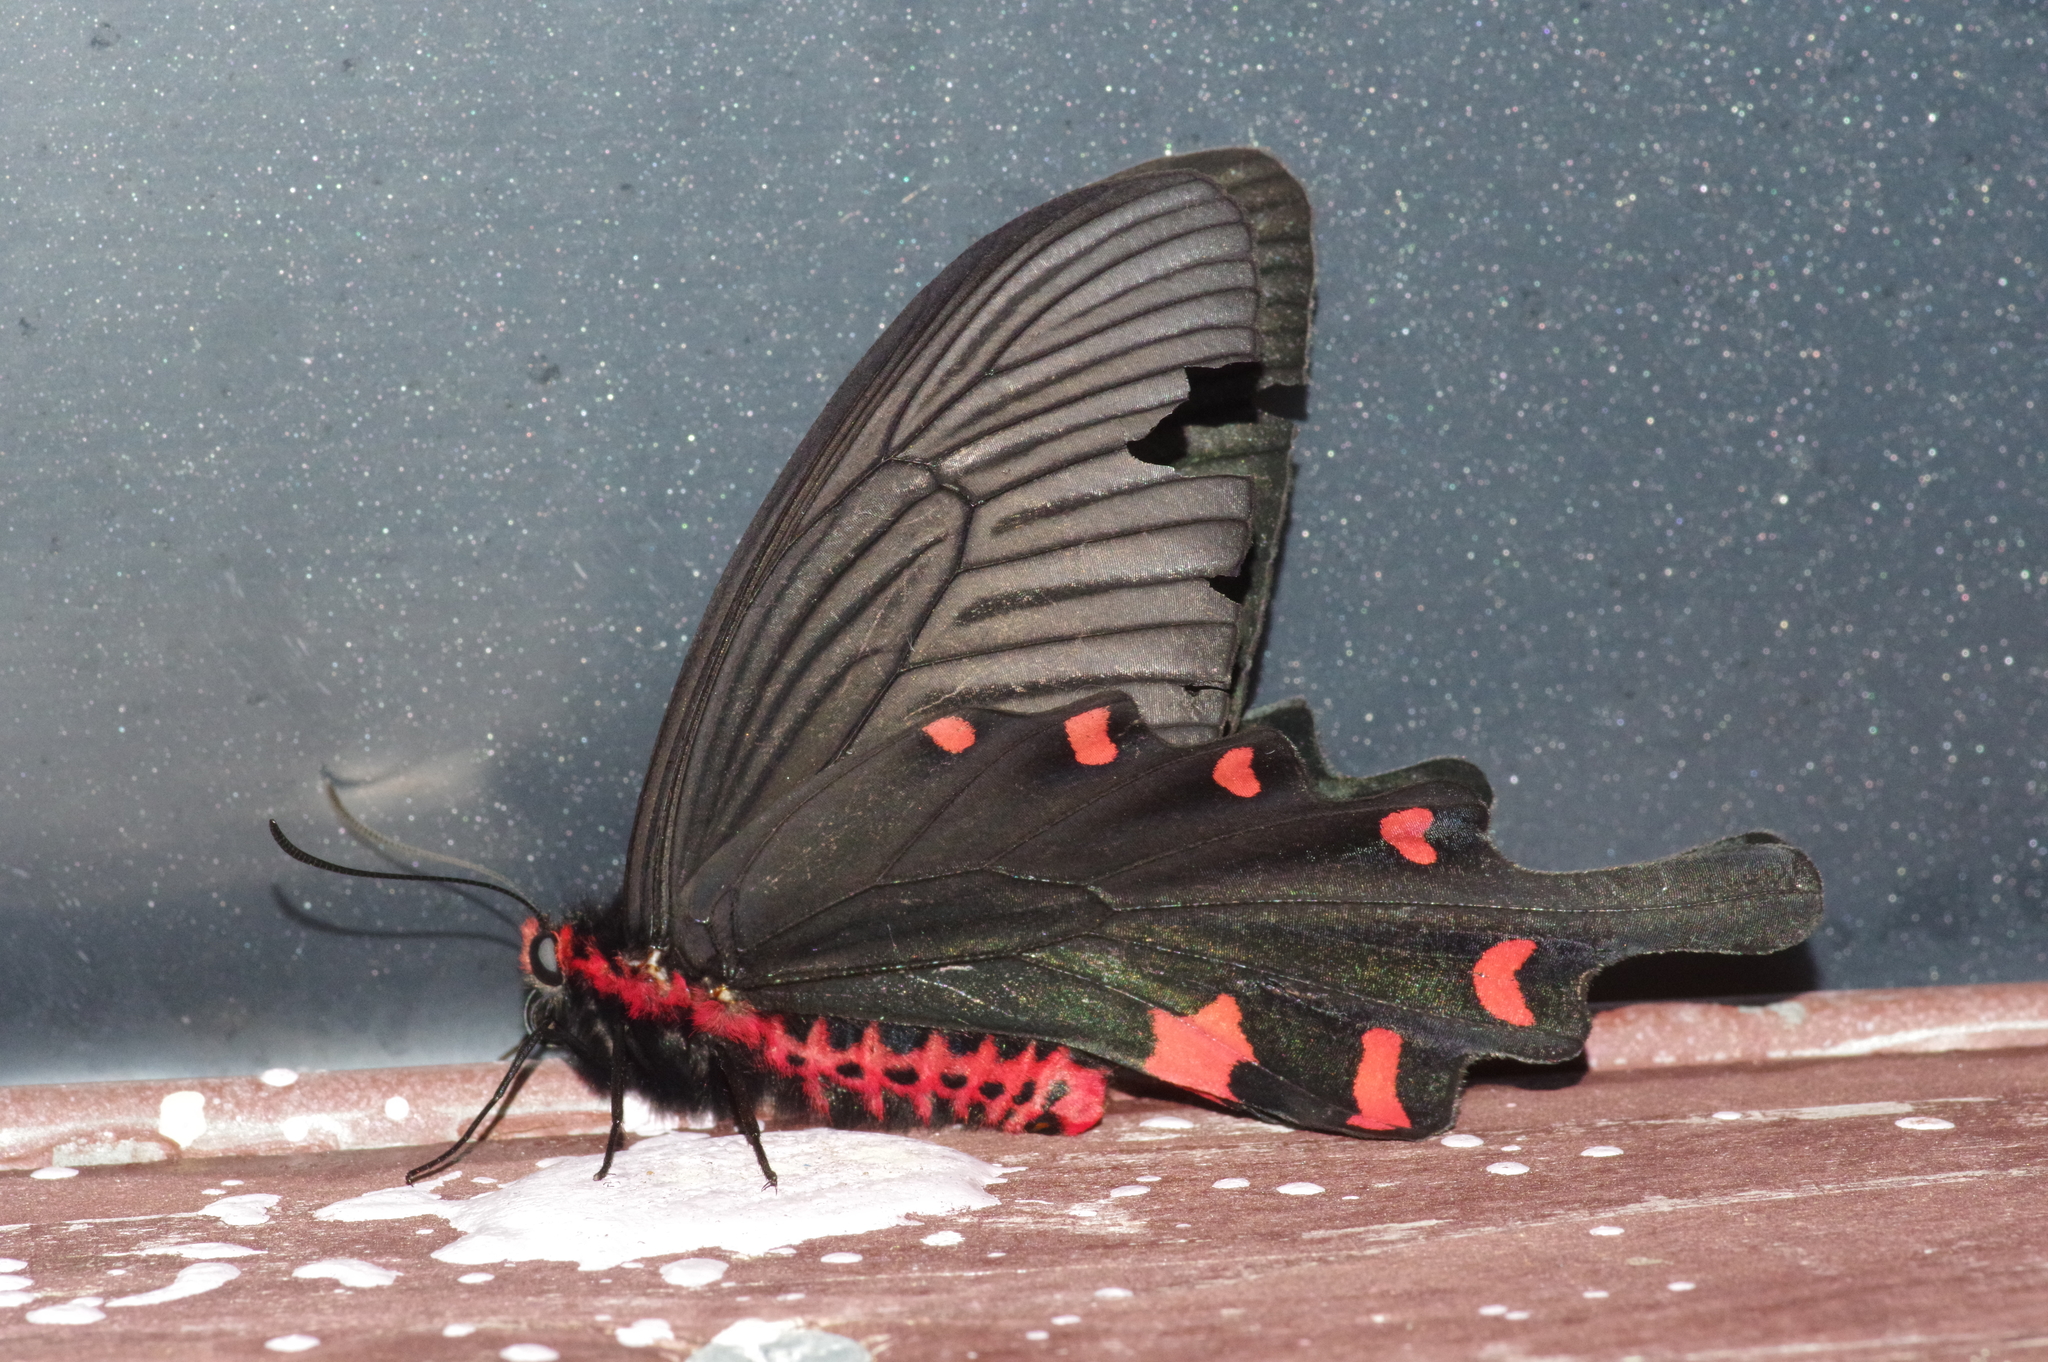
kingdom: Animalia
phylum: Arthropoda
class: Insecta
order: Lepidoptera
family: Papilionidae
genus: Byasa
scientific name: Byasa alcinous
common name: Chinese windmill
